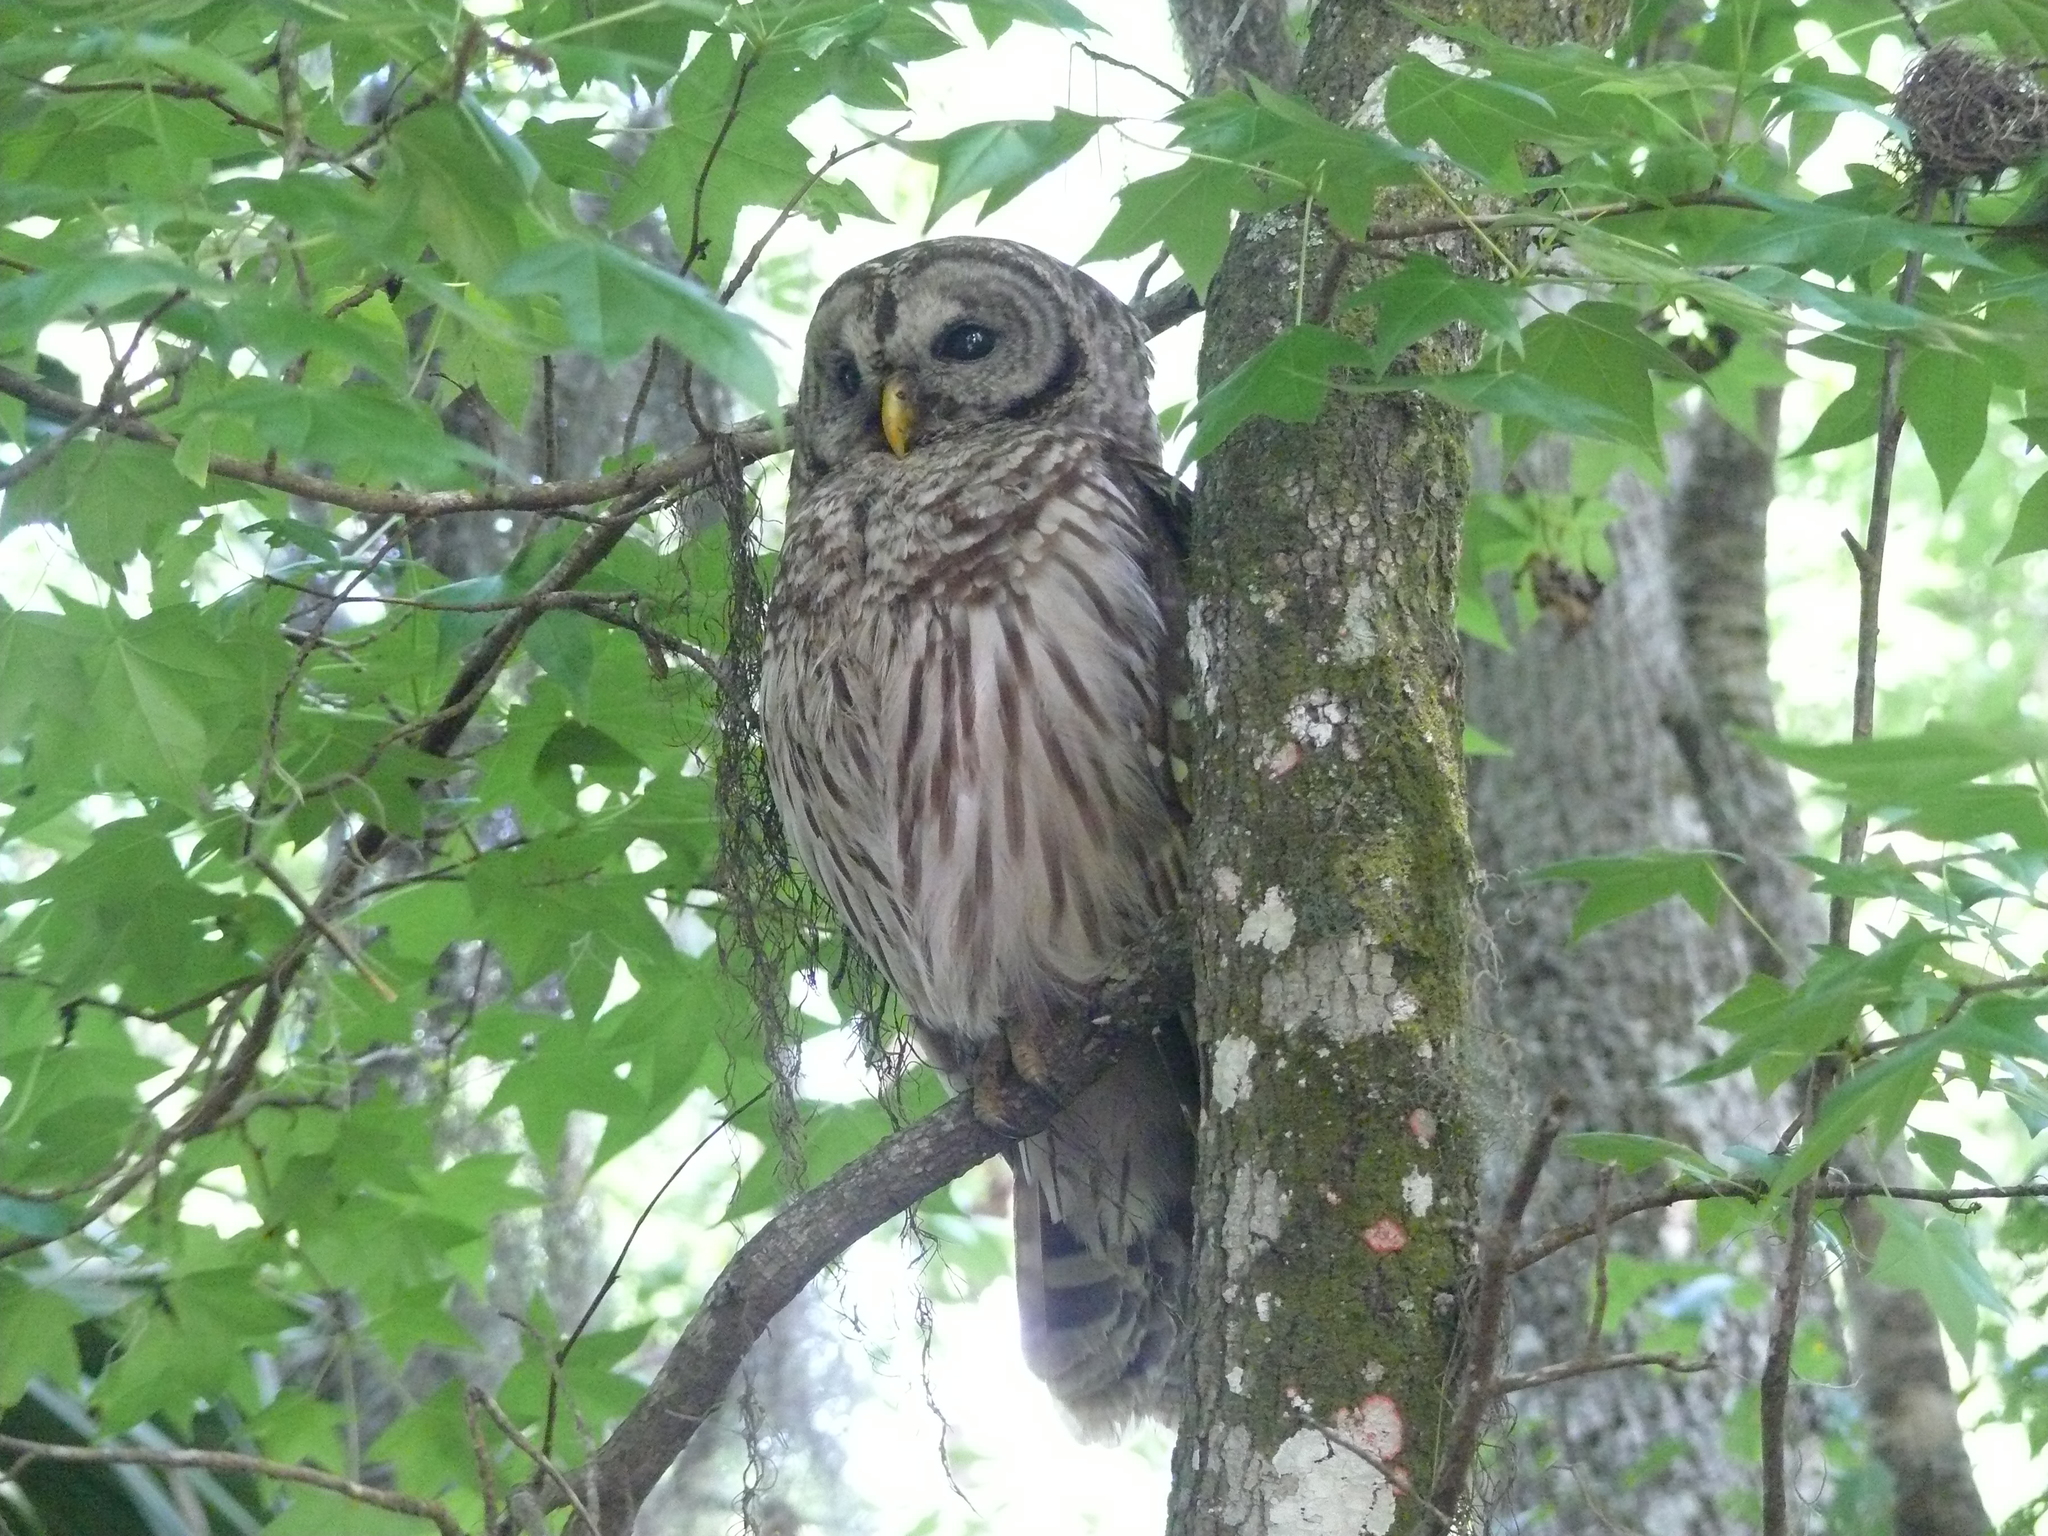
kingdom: Animalia
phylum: Chordata
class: Aves
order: Strigiformes
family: Strigidae
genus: Strix
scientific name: Strix varia
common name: Barred owl
